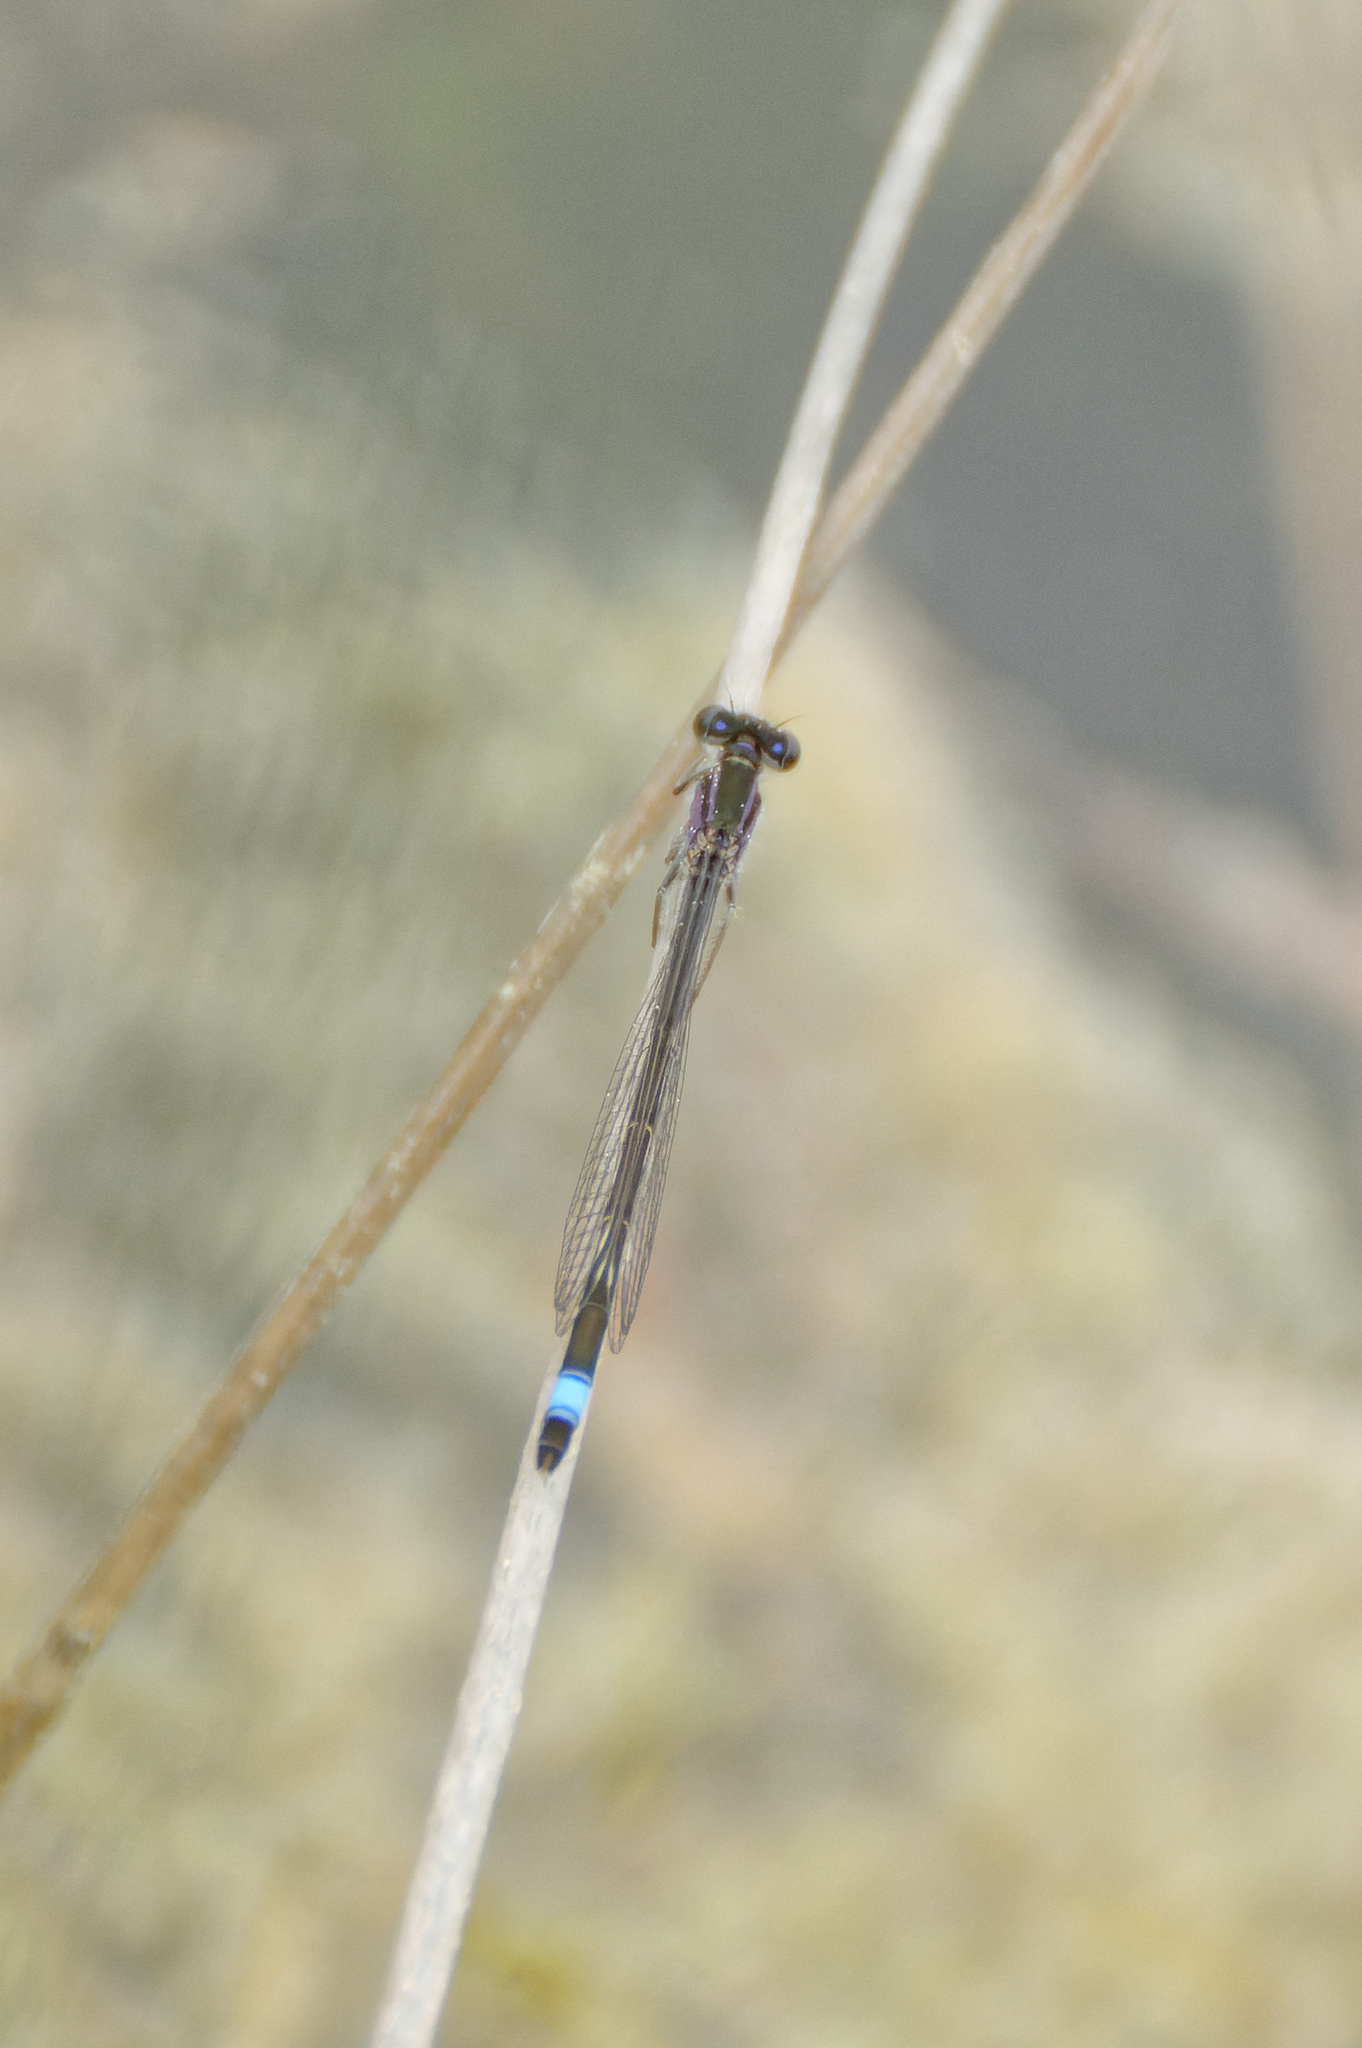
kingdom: Animalia
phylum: Arthropoda
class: Insecta
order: Odonata
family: Coenagrionidae
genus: Ischnura
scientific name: Ischnura elegans
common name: Blue-tailed damselfly
